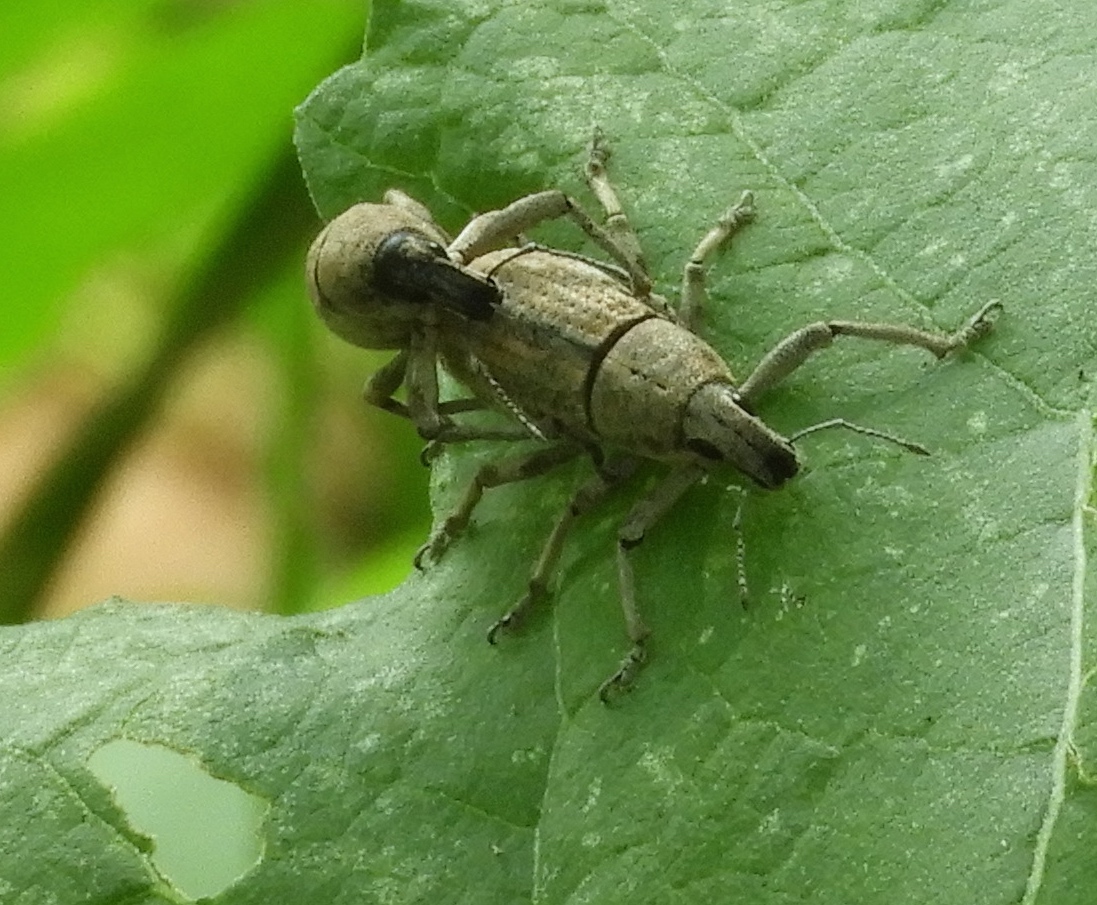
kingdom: Animalia
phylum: Arthropoda
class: Insecta
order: Coleoptera
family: Curculionidae
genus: Epicaerus
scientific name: Epicaerus
